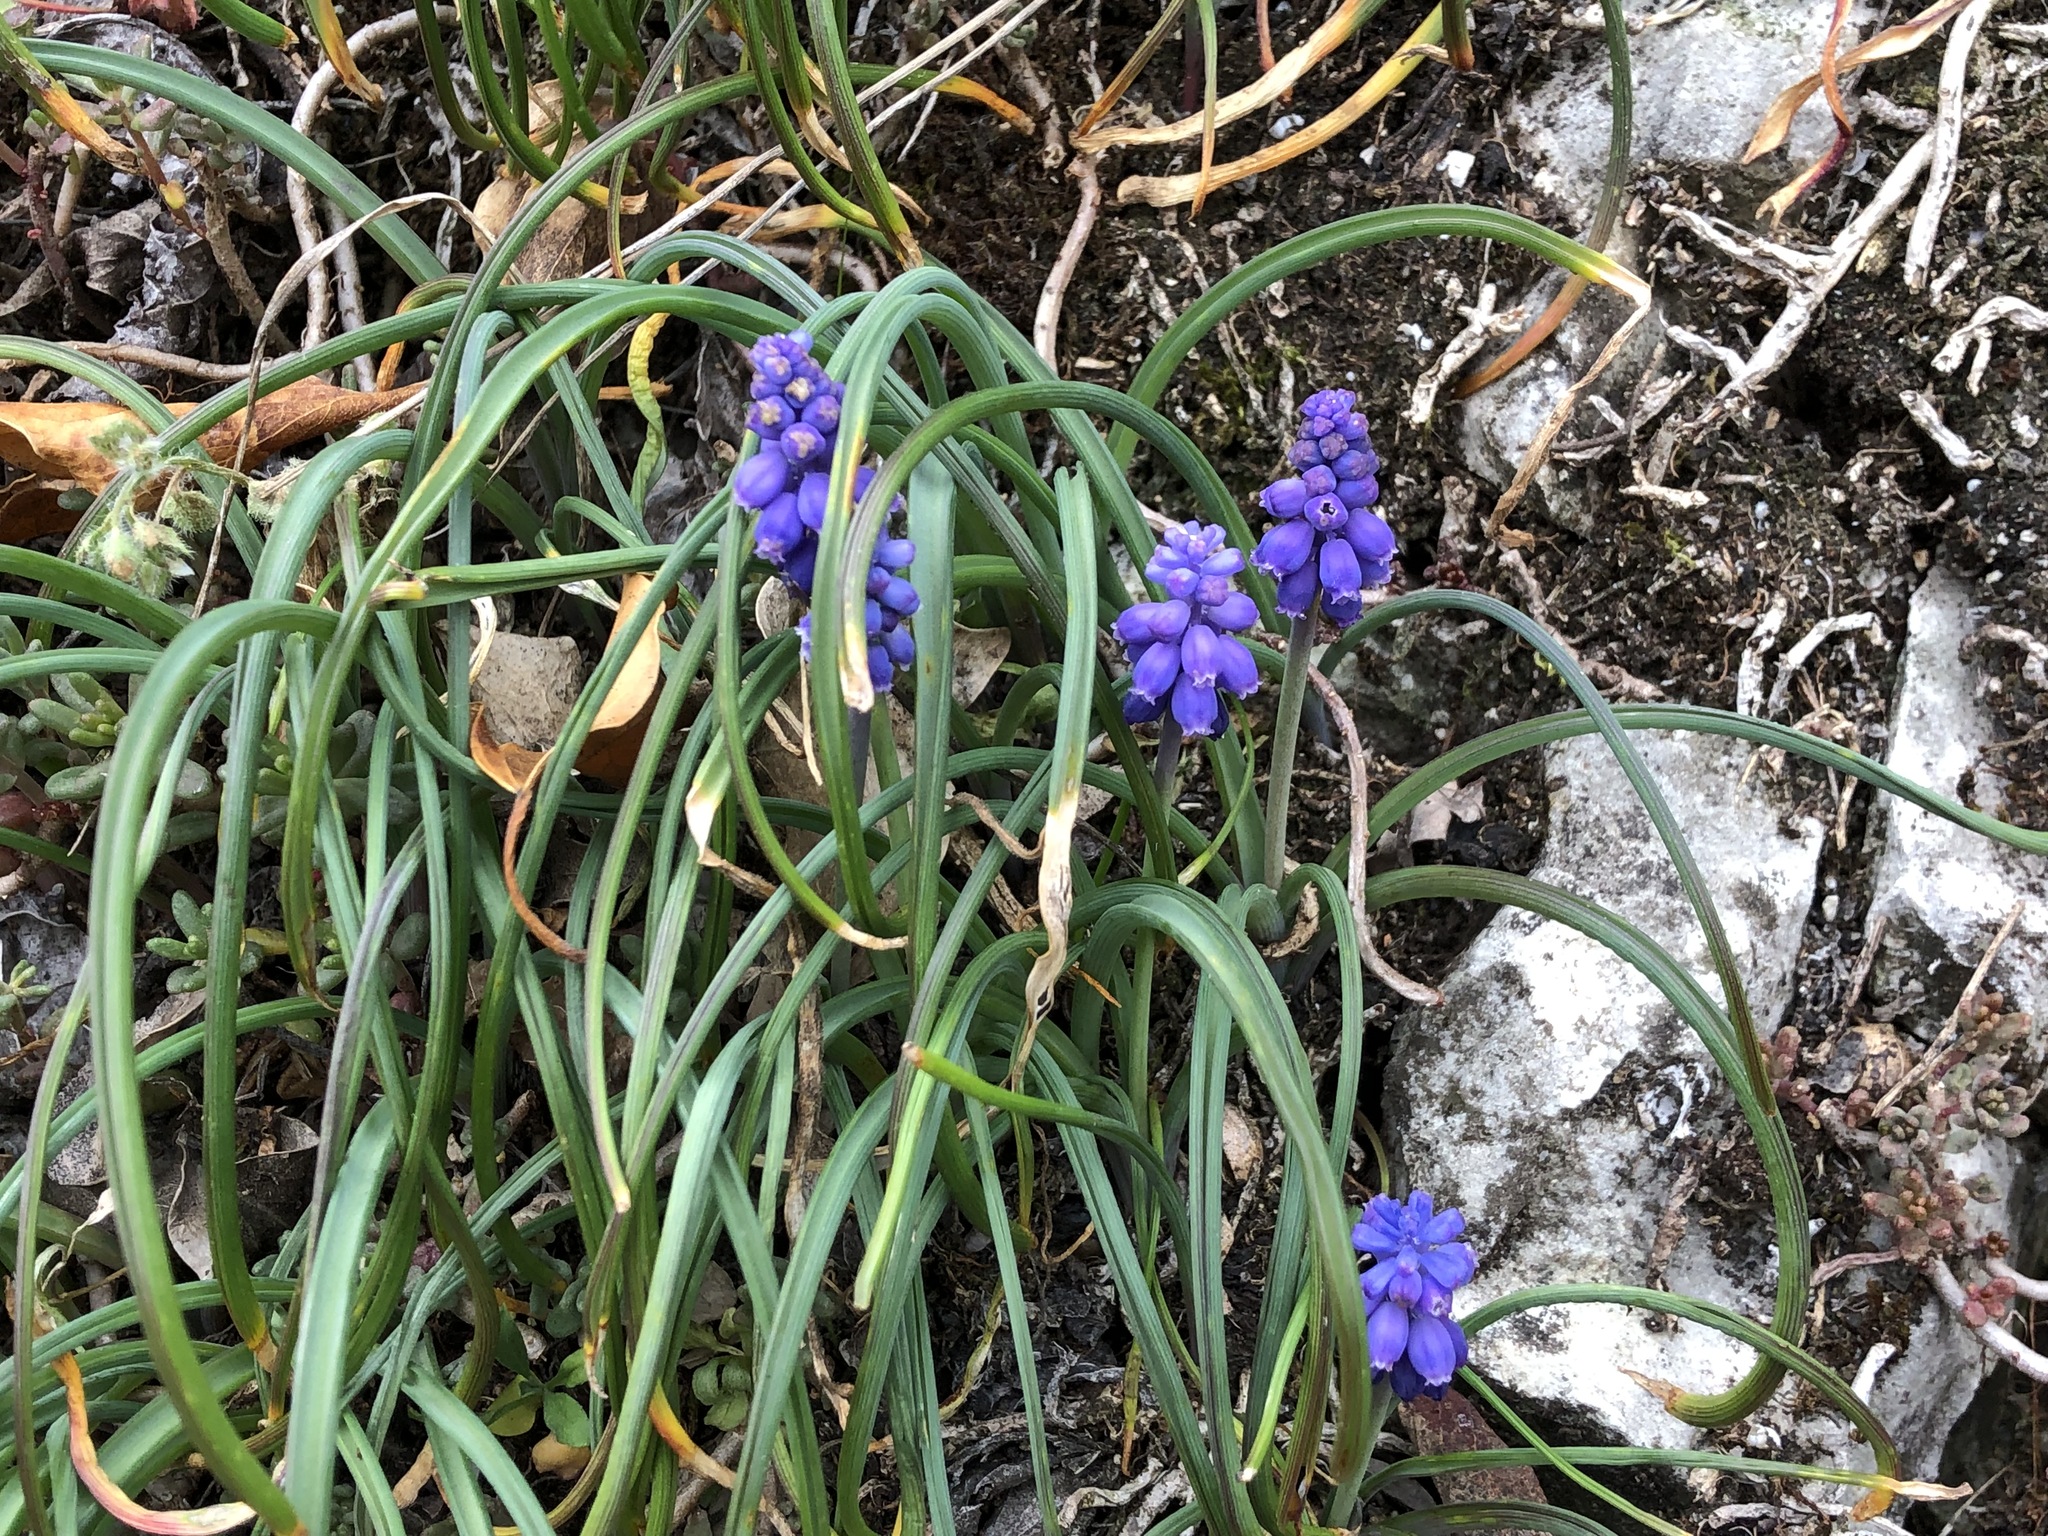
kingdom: Plantae
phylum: Tracheophyta
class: Liliopsida
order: Asparagales
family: Asparagaceae
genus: Muscari
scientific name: Muscari neglectum
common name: Grape-hyacinth
